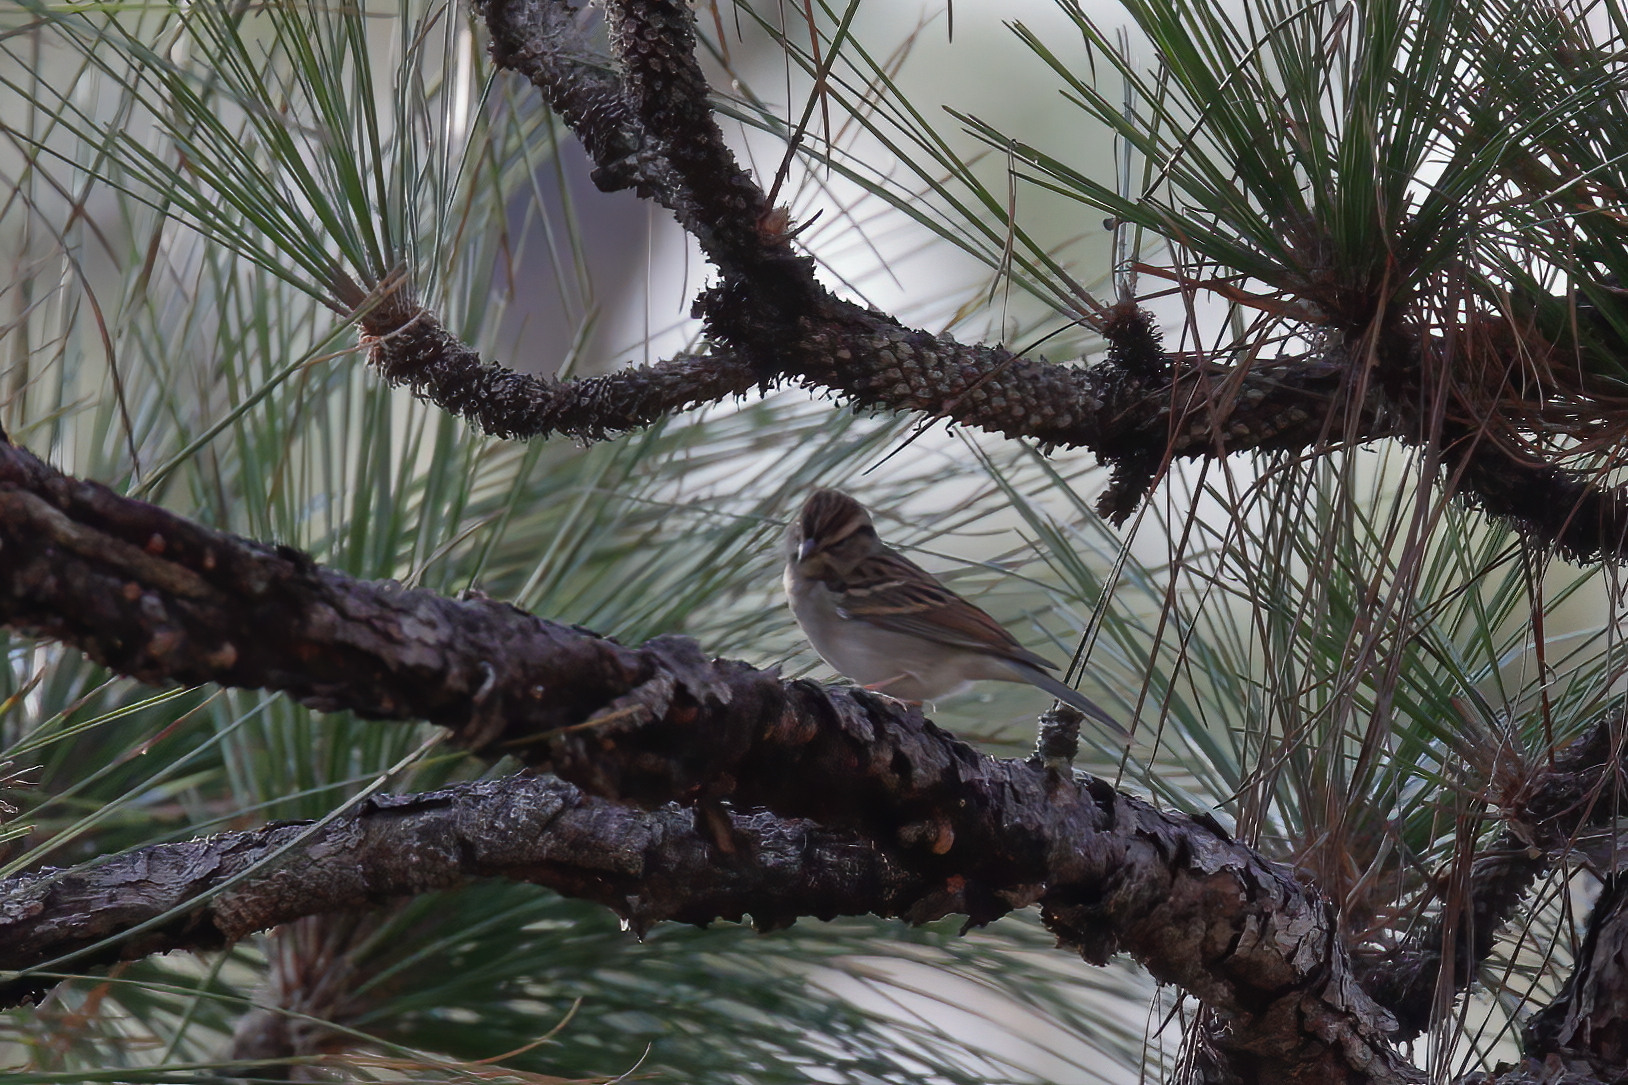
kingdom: Animalia
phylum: Chordata
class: Aves
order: Passeriformes
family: Passerellidae
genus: Spizella
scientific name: Spizella passerina
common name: Chipping sparrow
